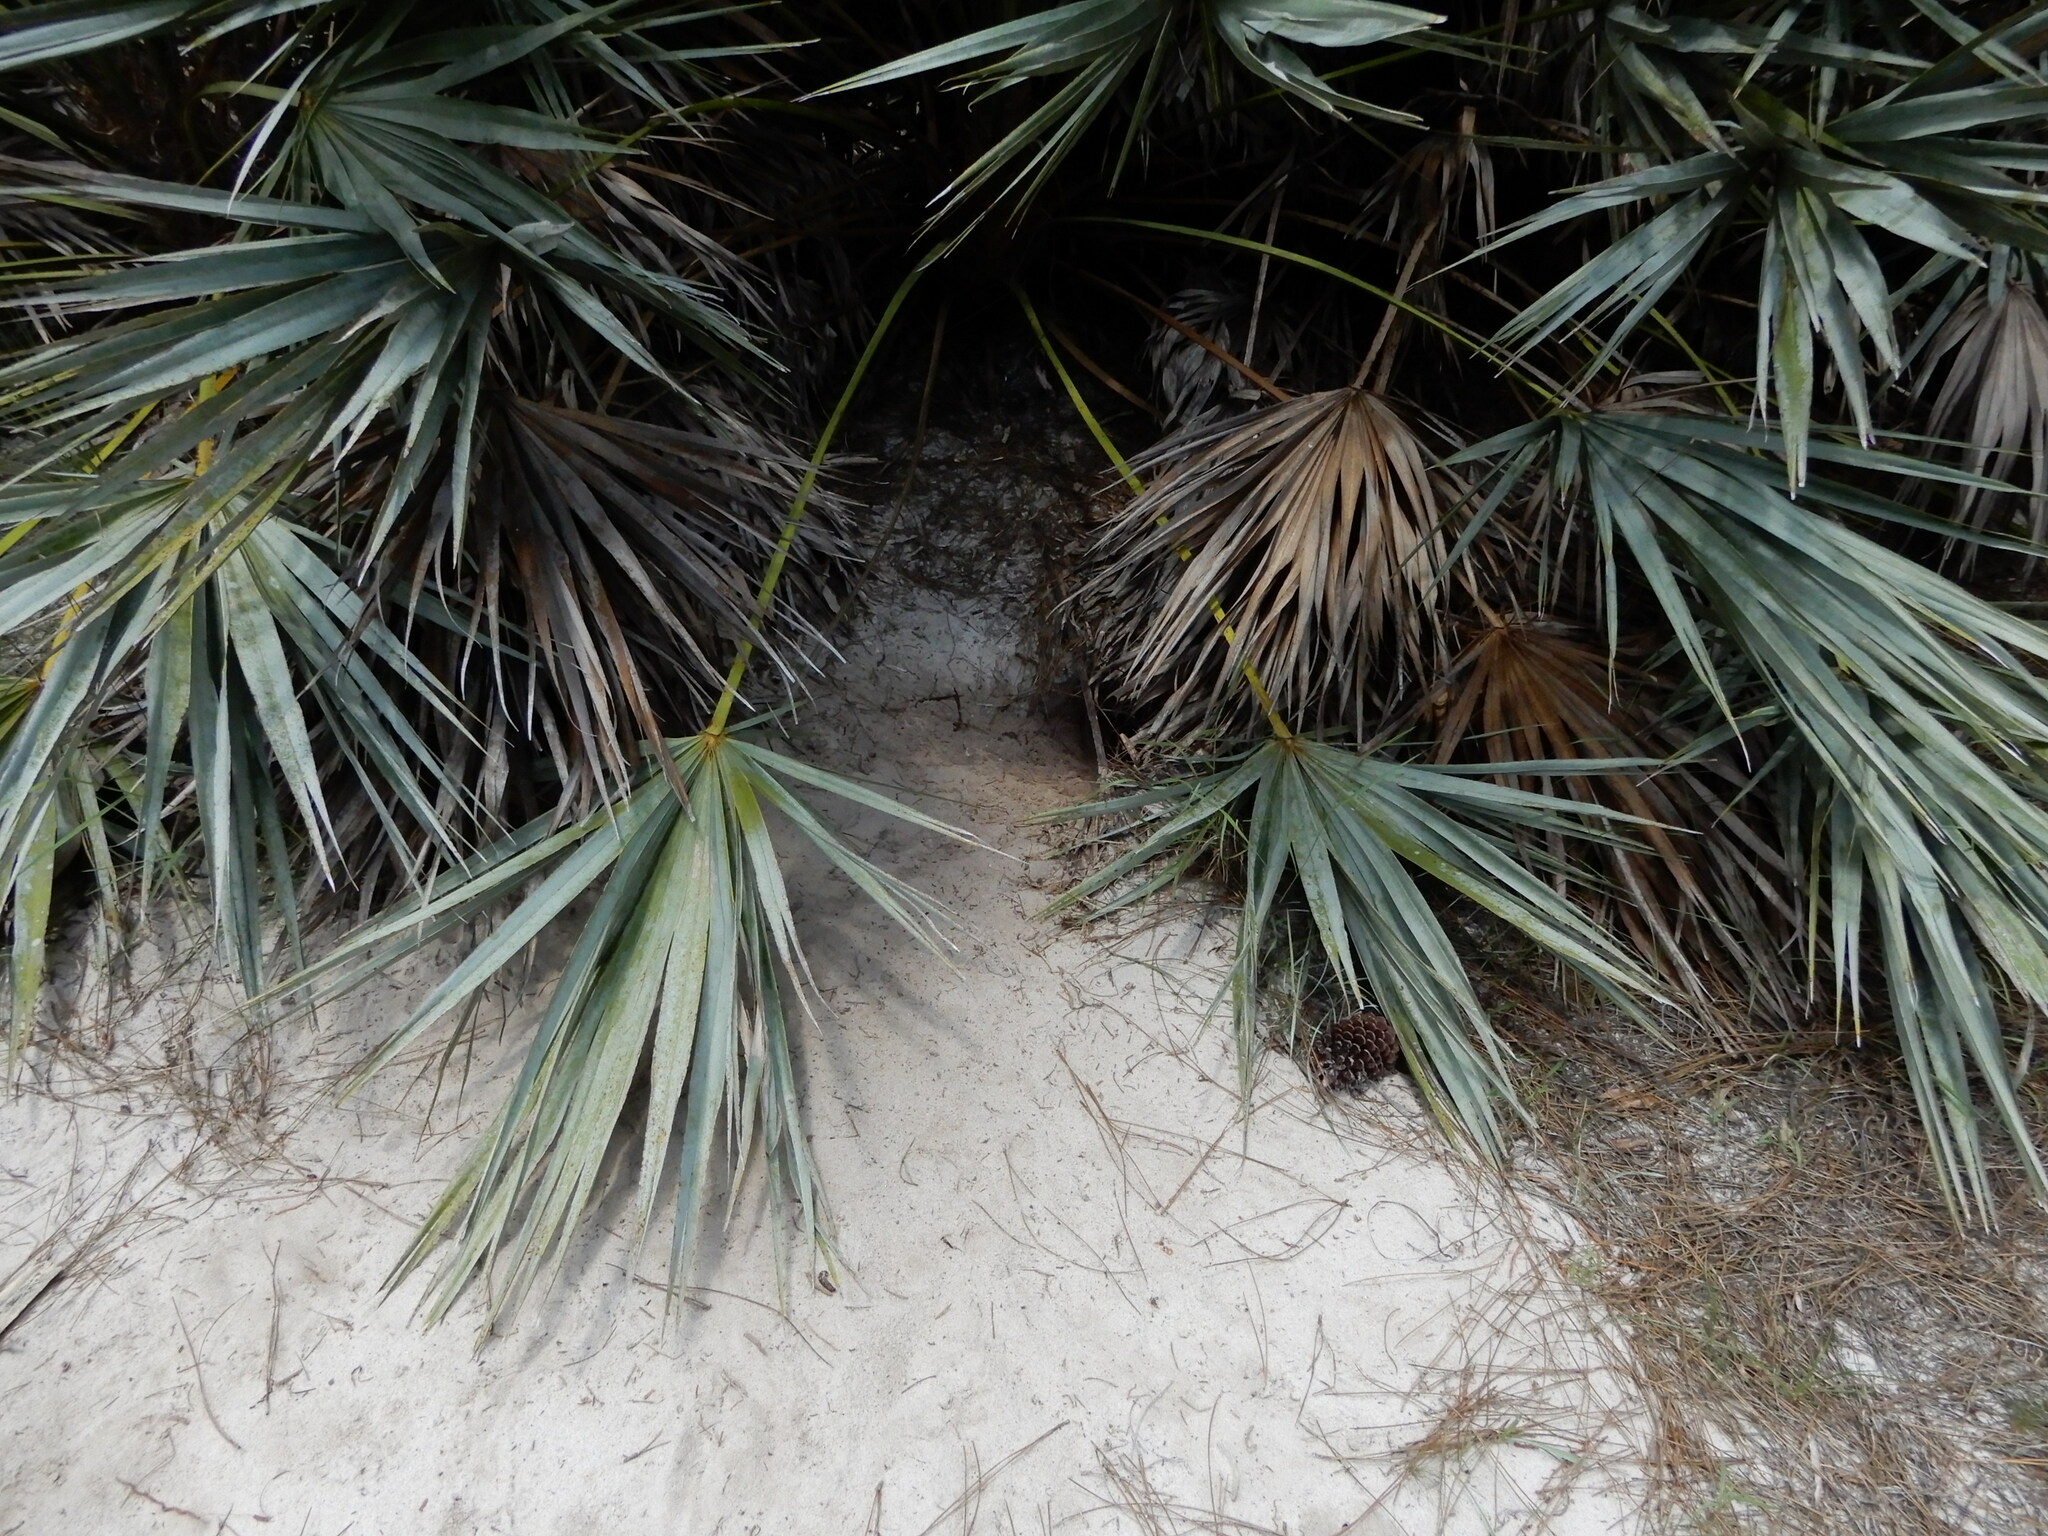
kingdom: Animalia
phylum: Chordata
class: Testudines
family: Testudinidae
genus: Gopherus
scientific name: Gopherus polyphemus
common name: Florida gopher tortoise
